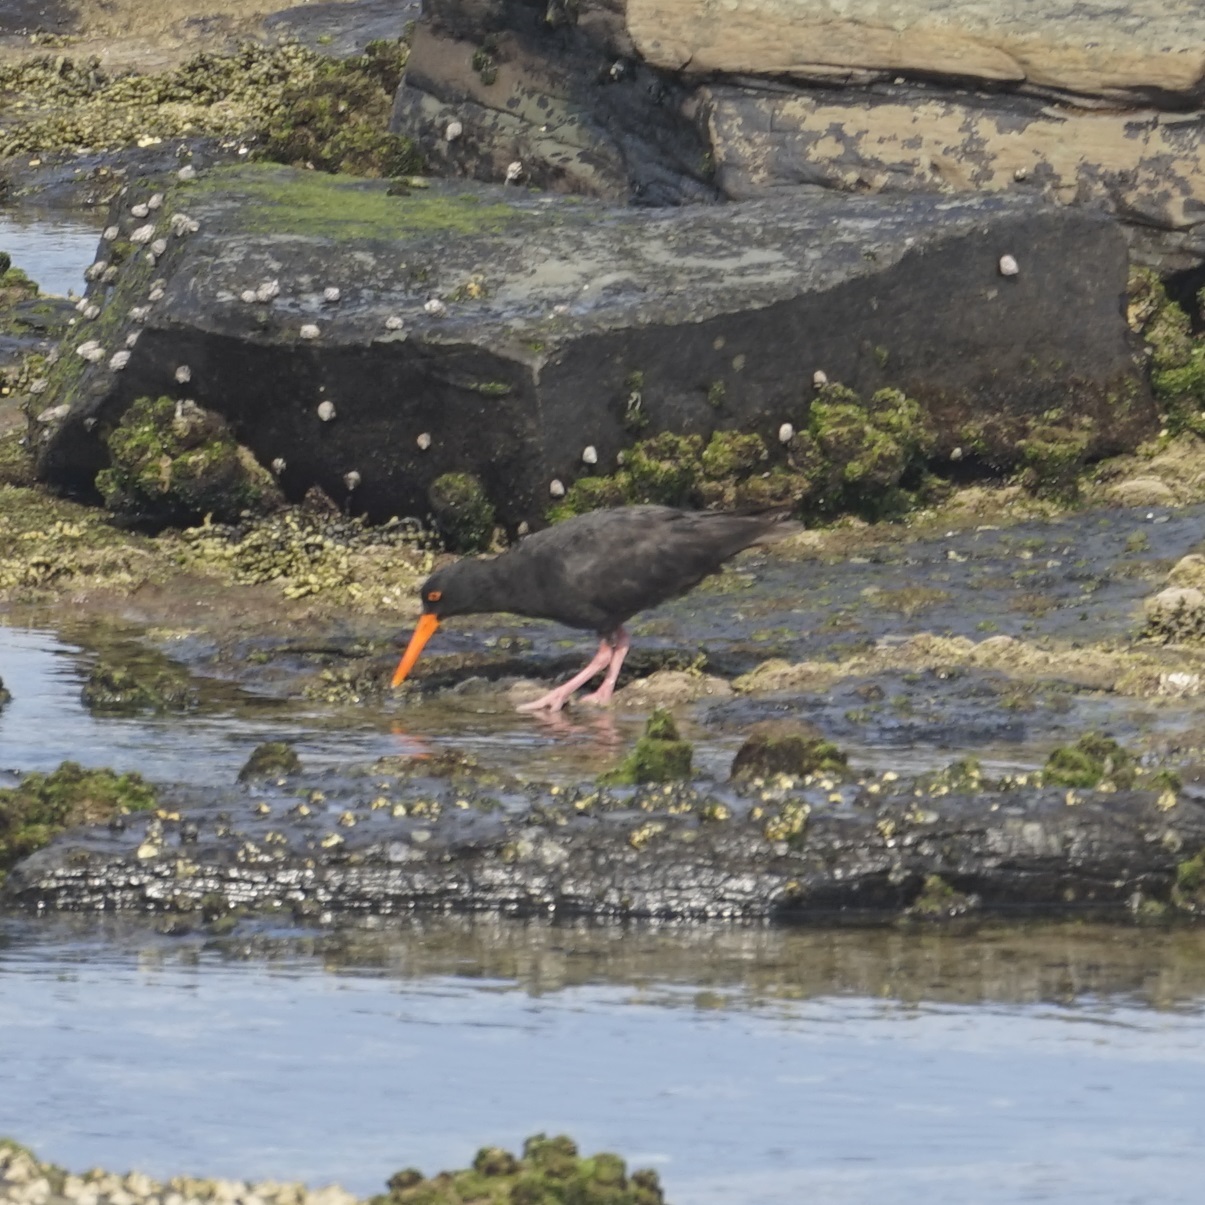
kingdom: Animalia
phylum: Chordata
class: Aves
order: Charadriiformes
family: Haematopodidae
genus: Haematopus
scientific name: Haematopus fuliginosus
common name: Sooty oystercatcher
